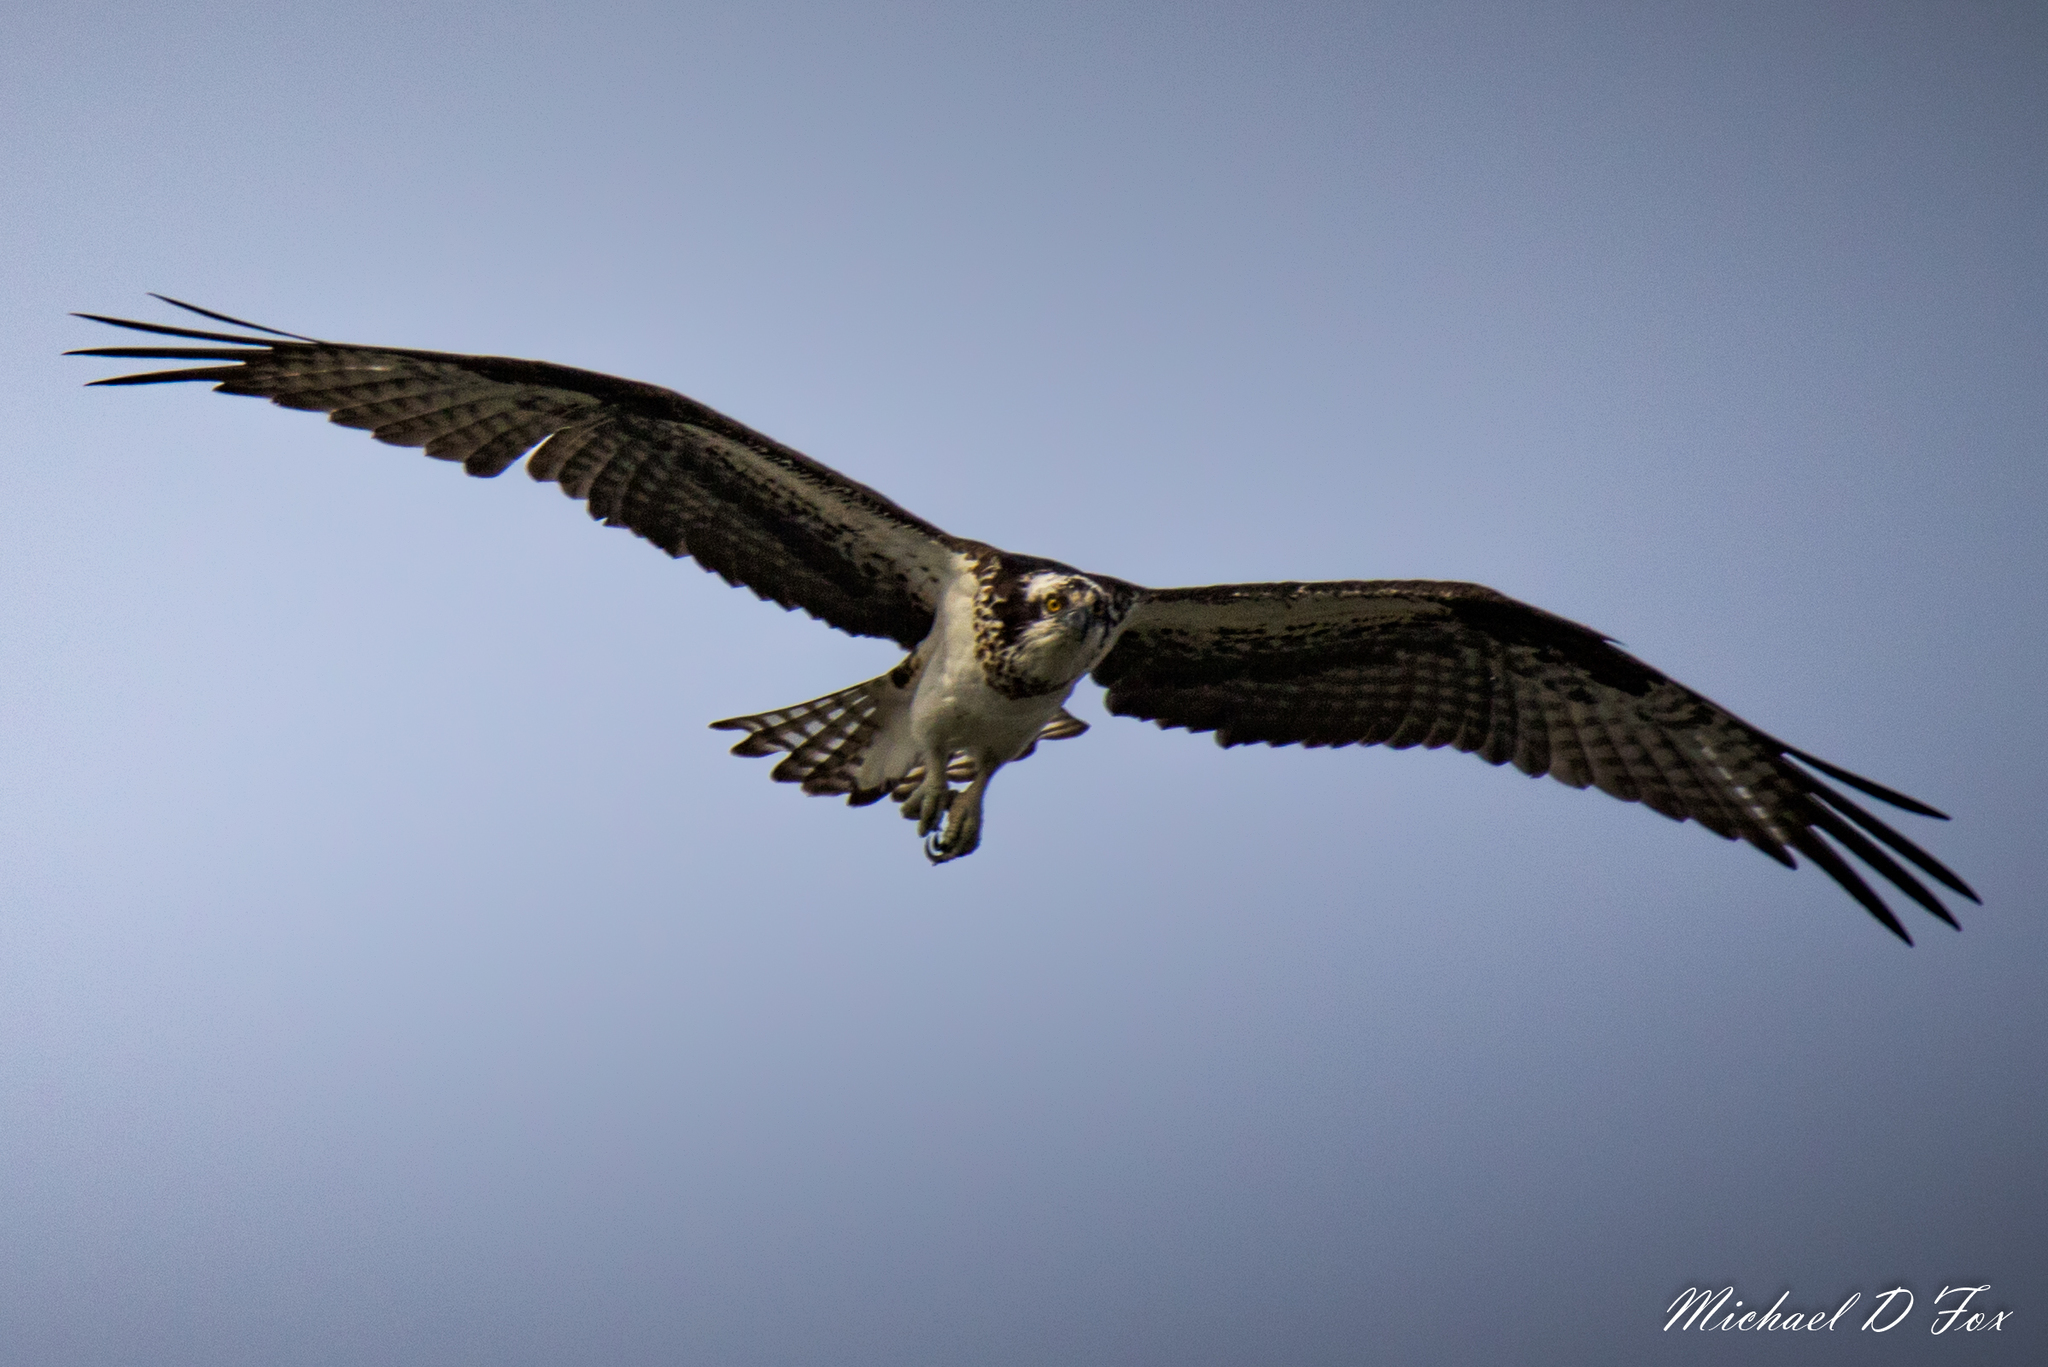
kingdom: Animalia
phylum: Chordata
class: Aves
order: Accipitriformes
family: Pandionidae
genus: Pandion
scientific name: Pandion haliaetus
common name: Osprey
